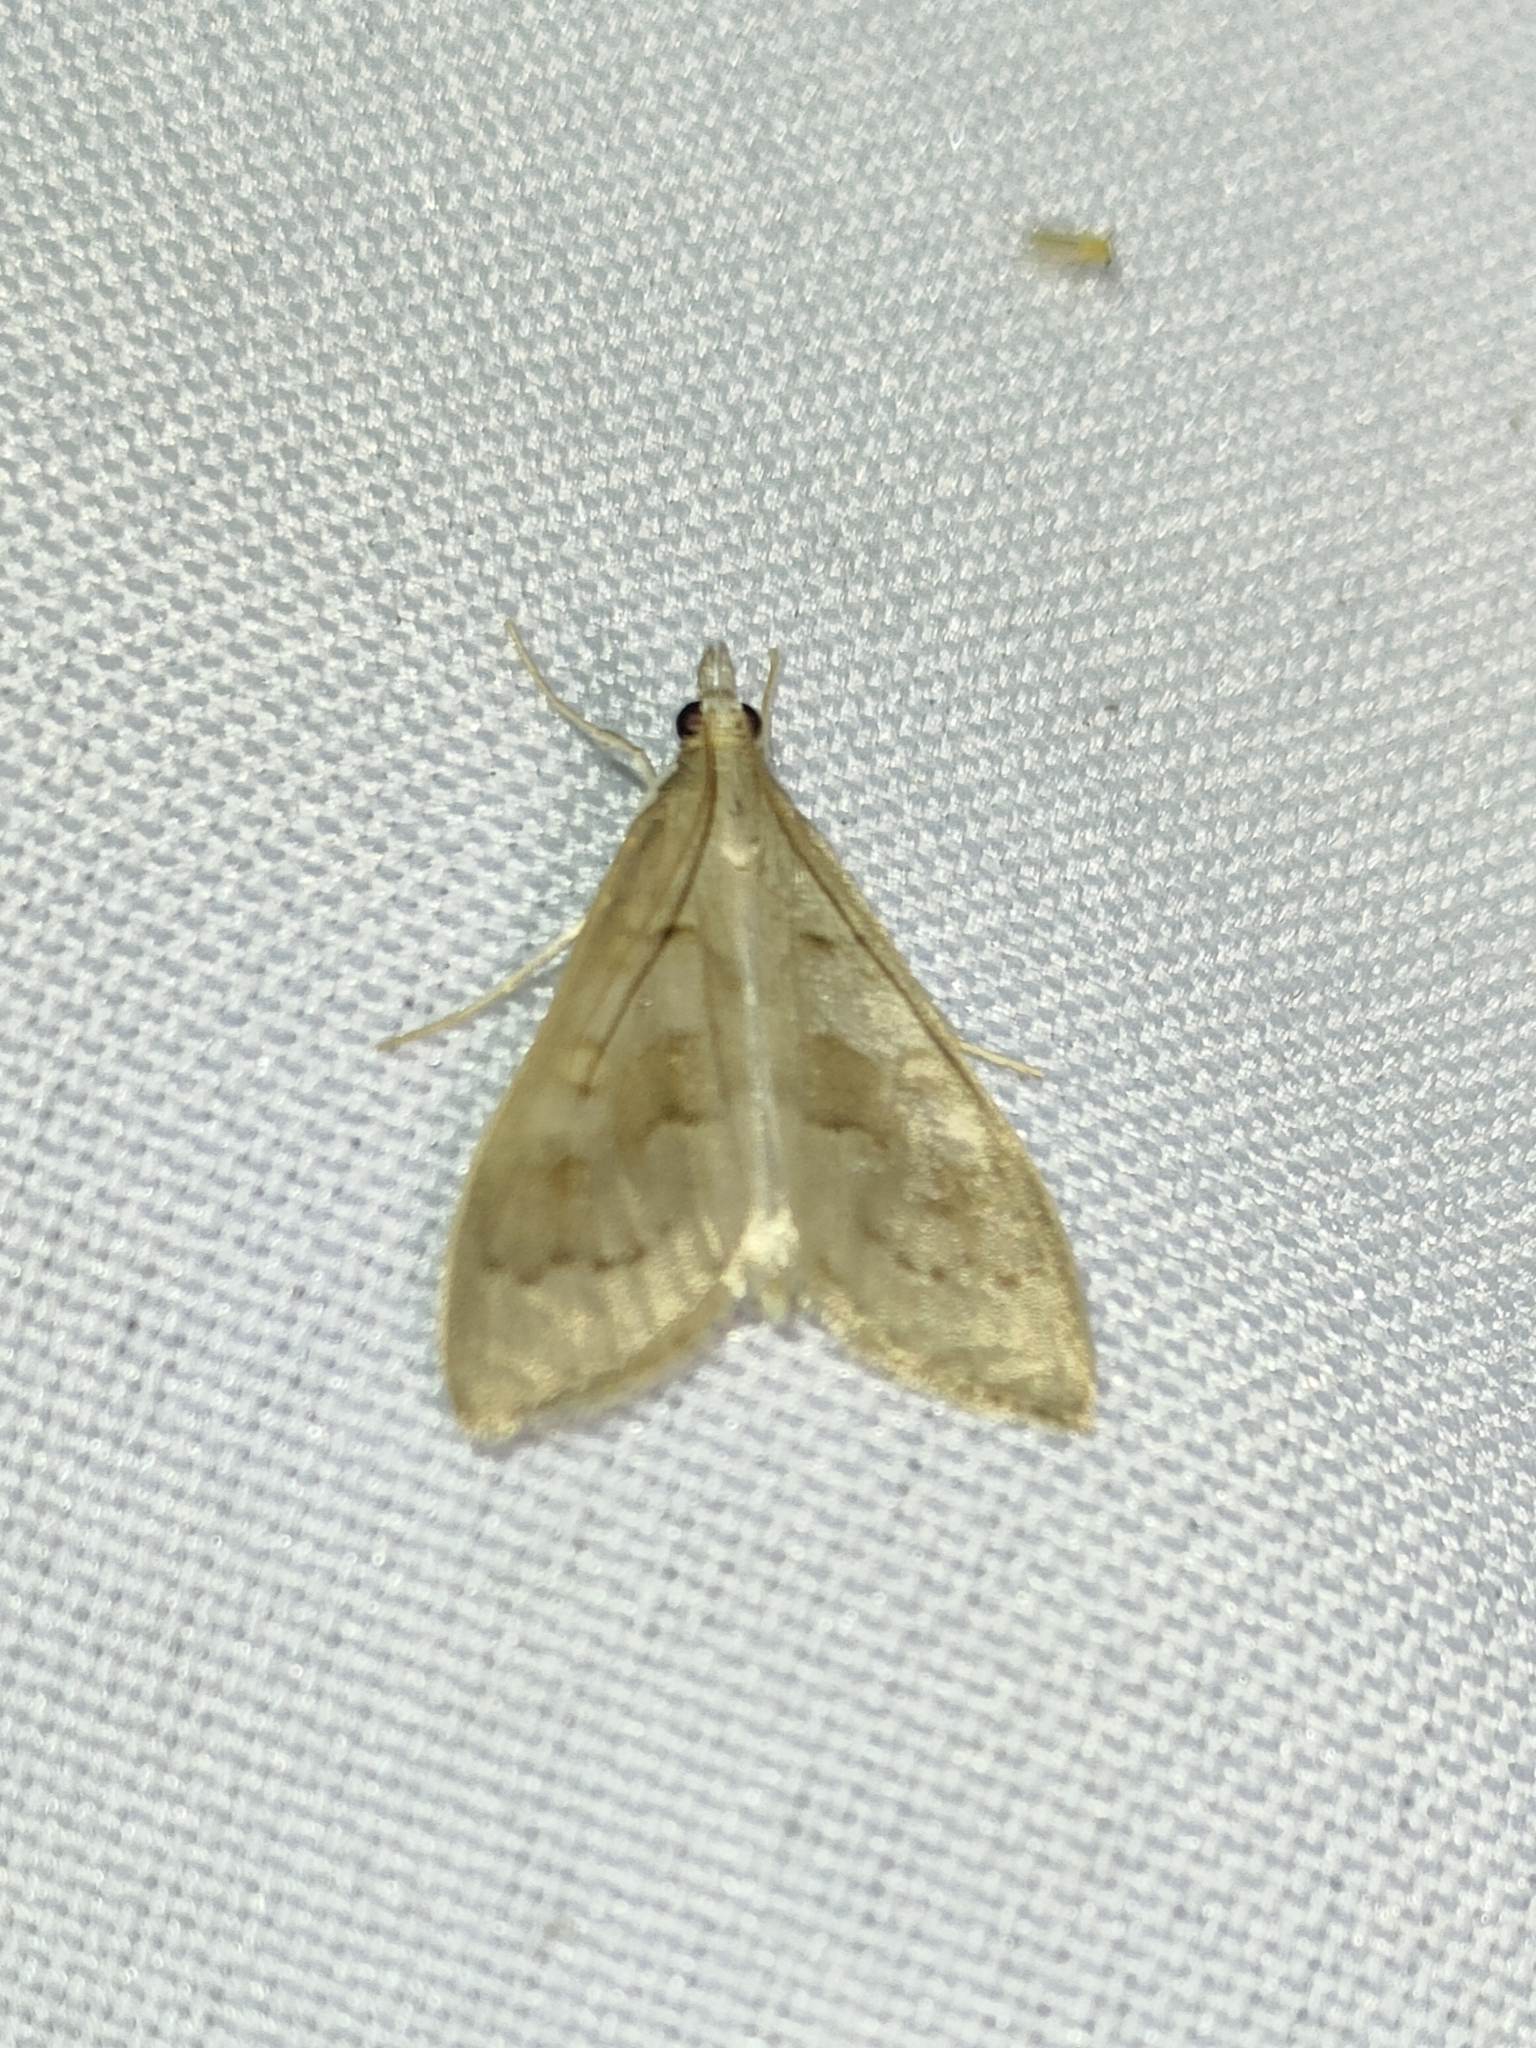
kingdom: Animalia
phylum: Arthropoda
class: Insecta
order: Lepidoptera
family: Crambidae
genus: Mecyna
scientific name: Mecyna asinalis
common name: Coastal pearl
